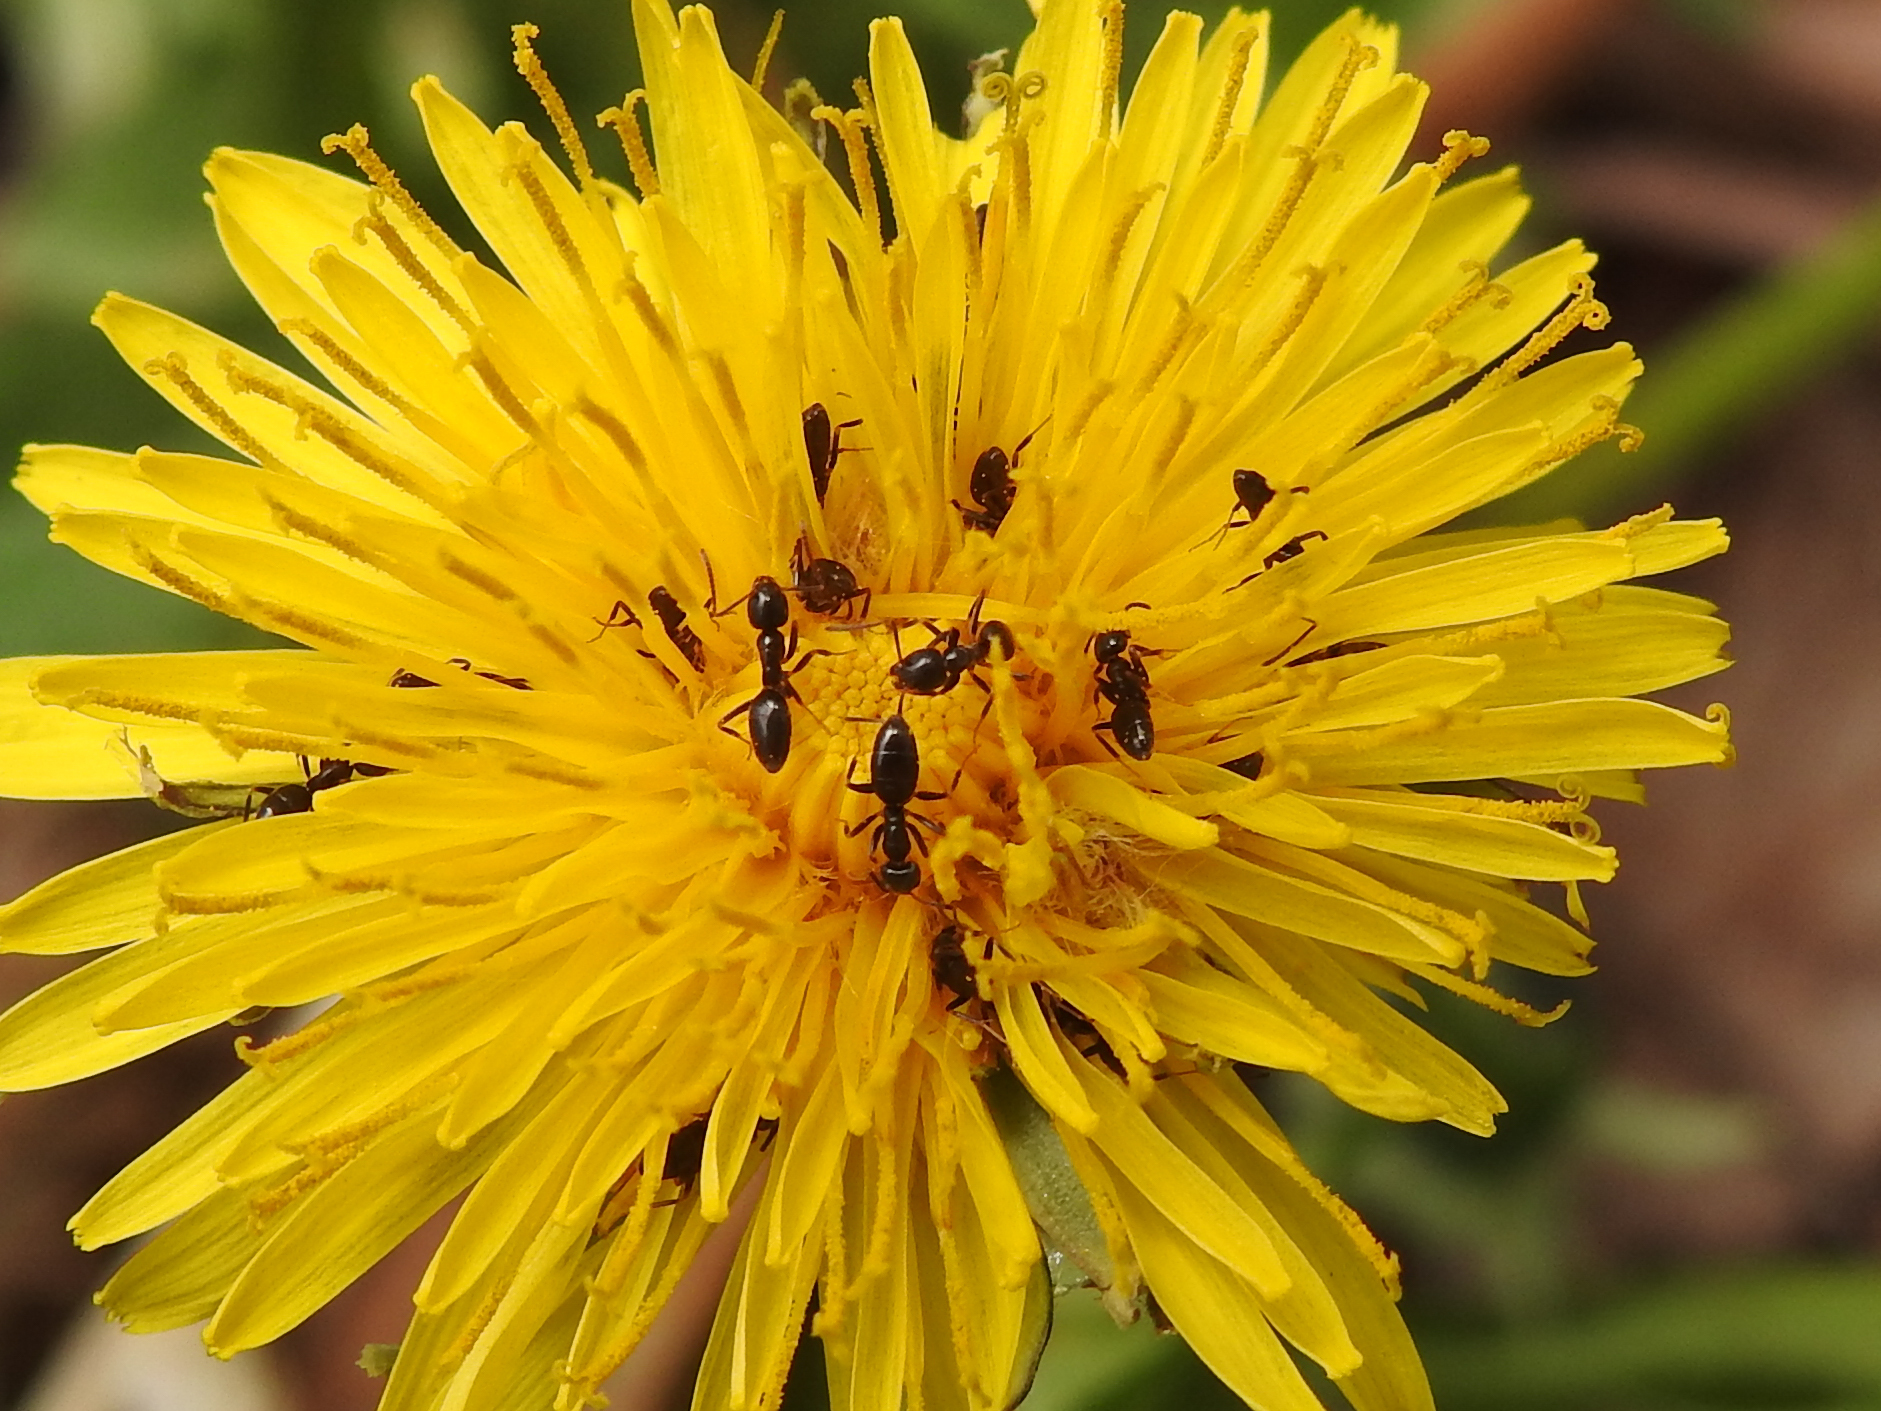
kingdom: Animalia
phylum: Arthropoda
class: Insecta
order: Hymenoptera
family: Formicidae
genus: Tapinoma
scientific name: Tapinoma sessile
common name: Odorous house ant
